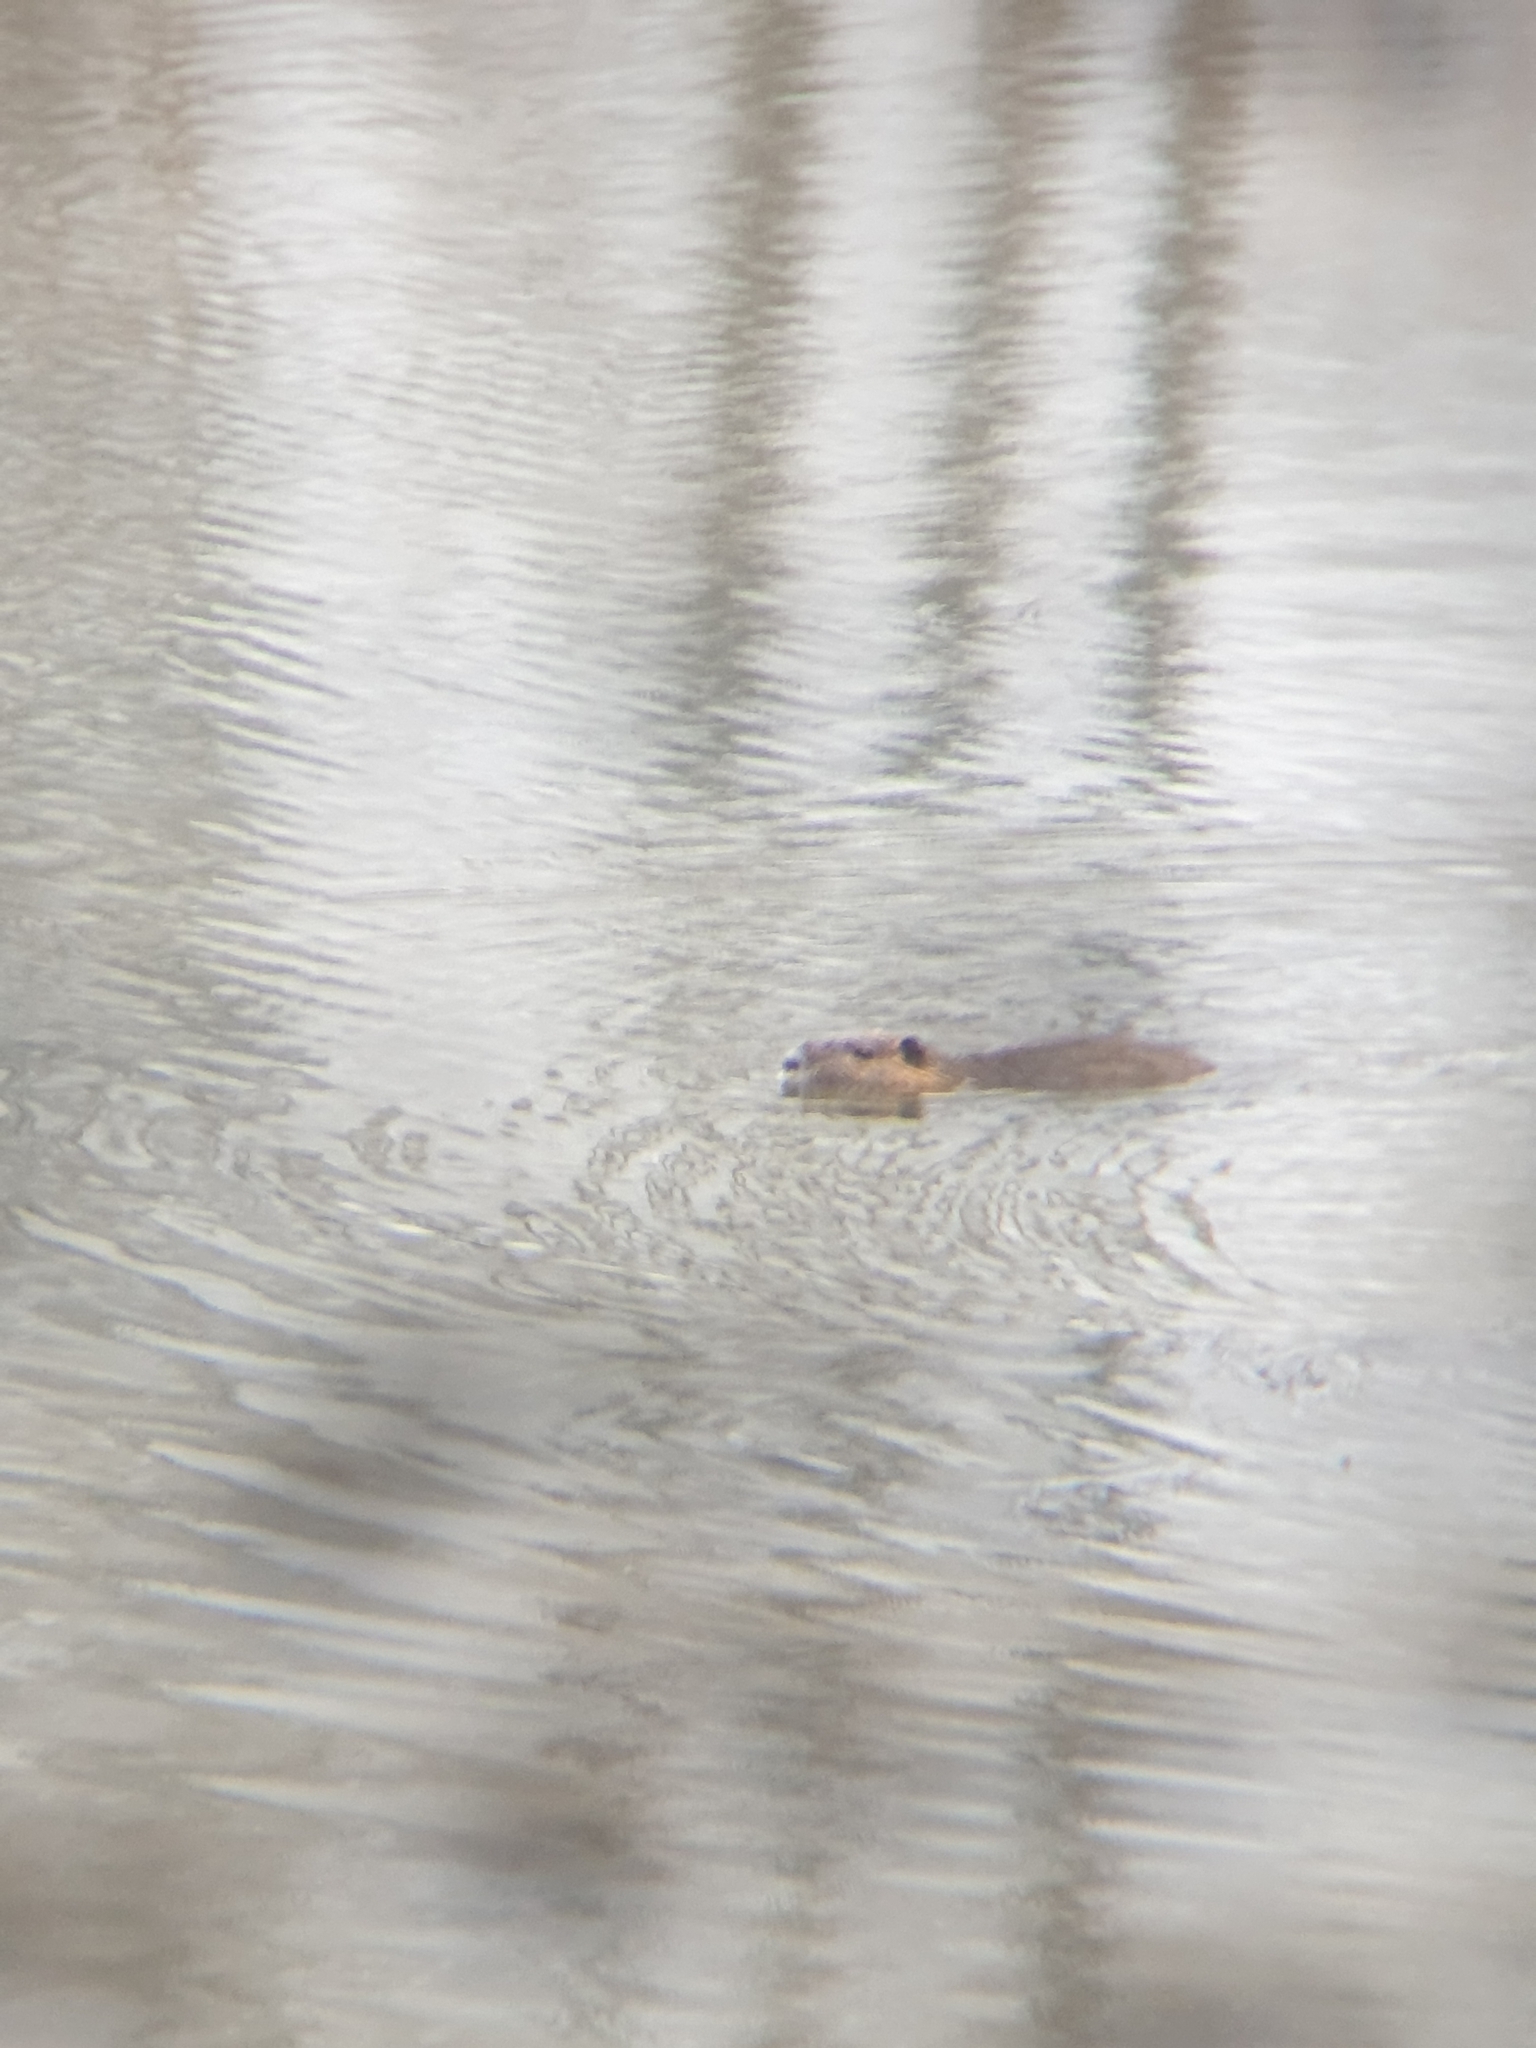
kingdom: Animalia
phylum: Chordata
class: Mammalia
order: Rodentia
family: Myocastoridae
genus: Myocastor
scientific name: Myocastor coypus
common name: Coypu
